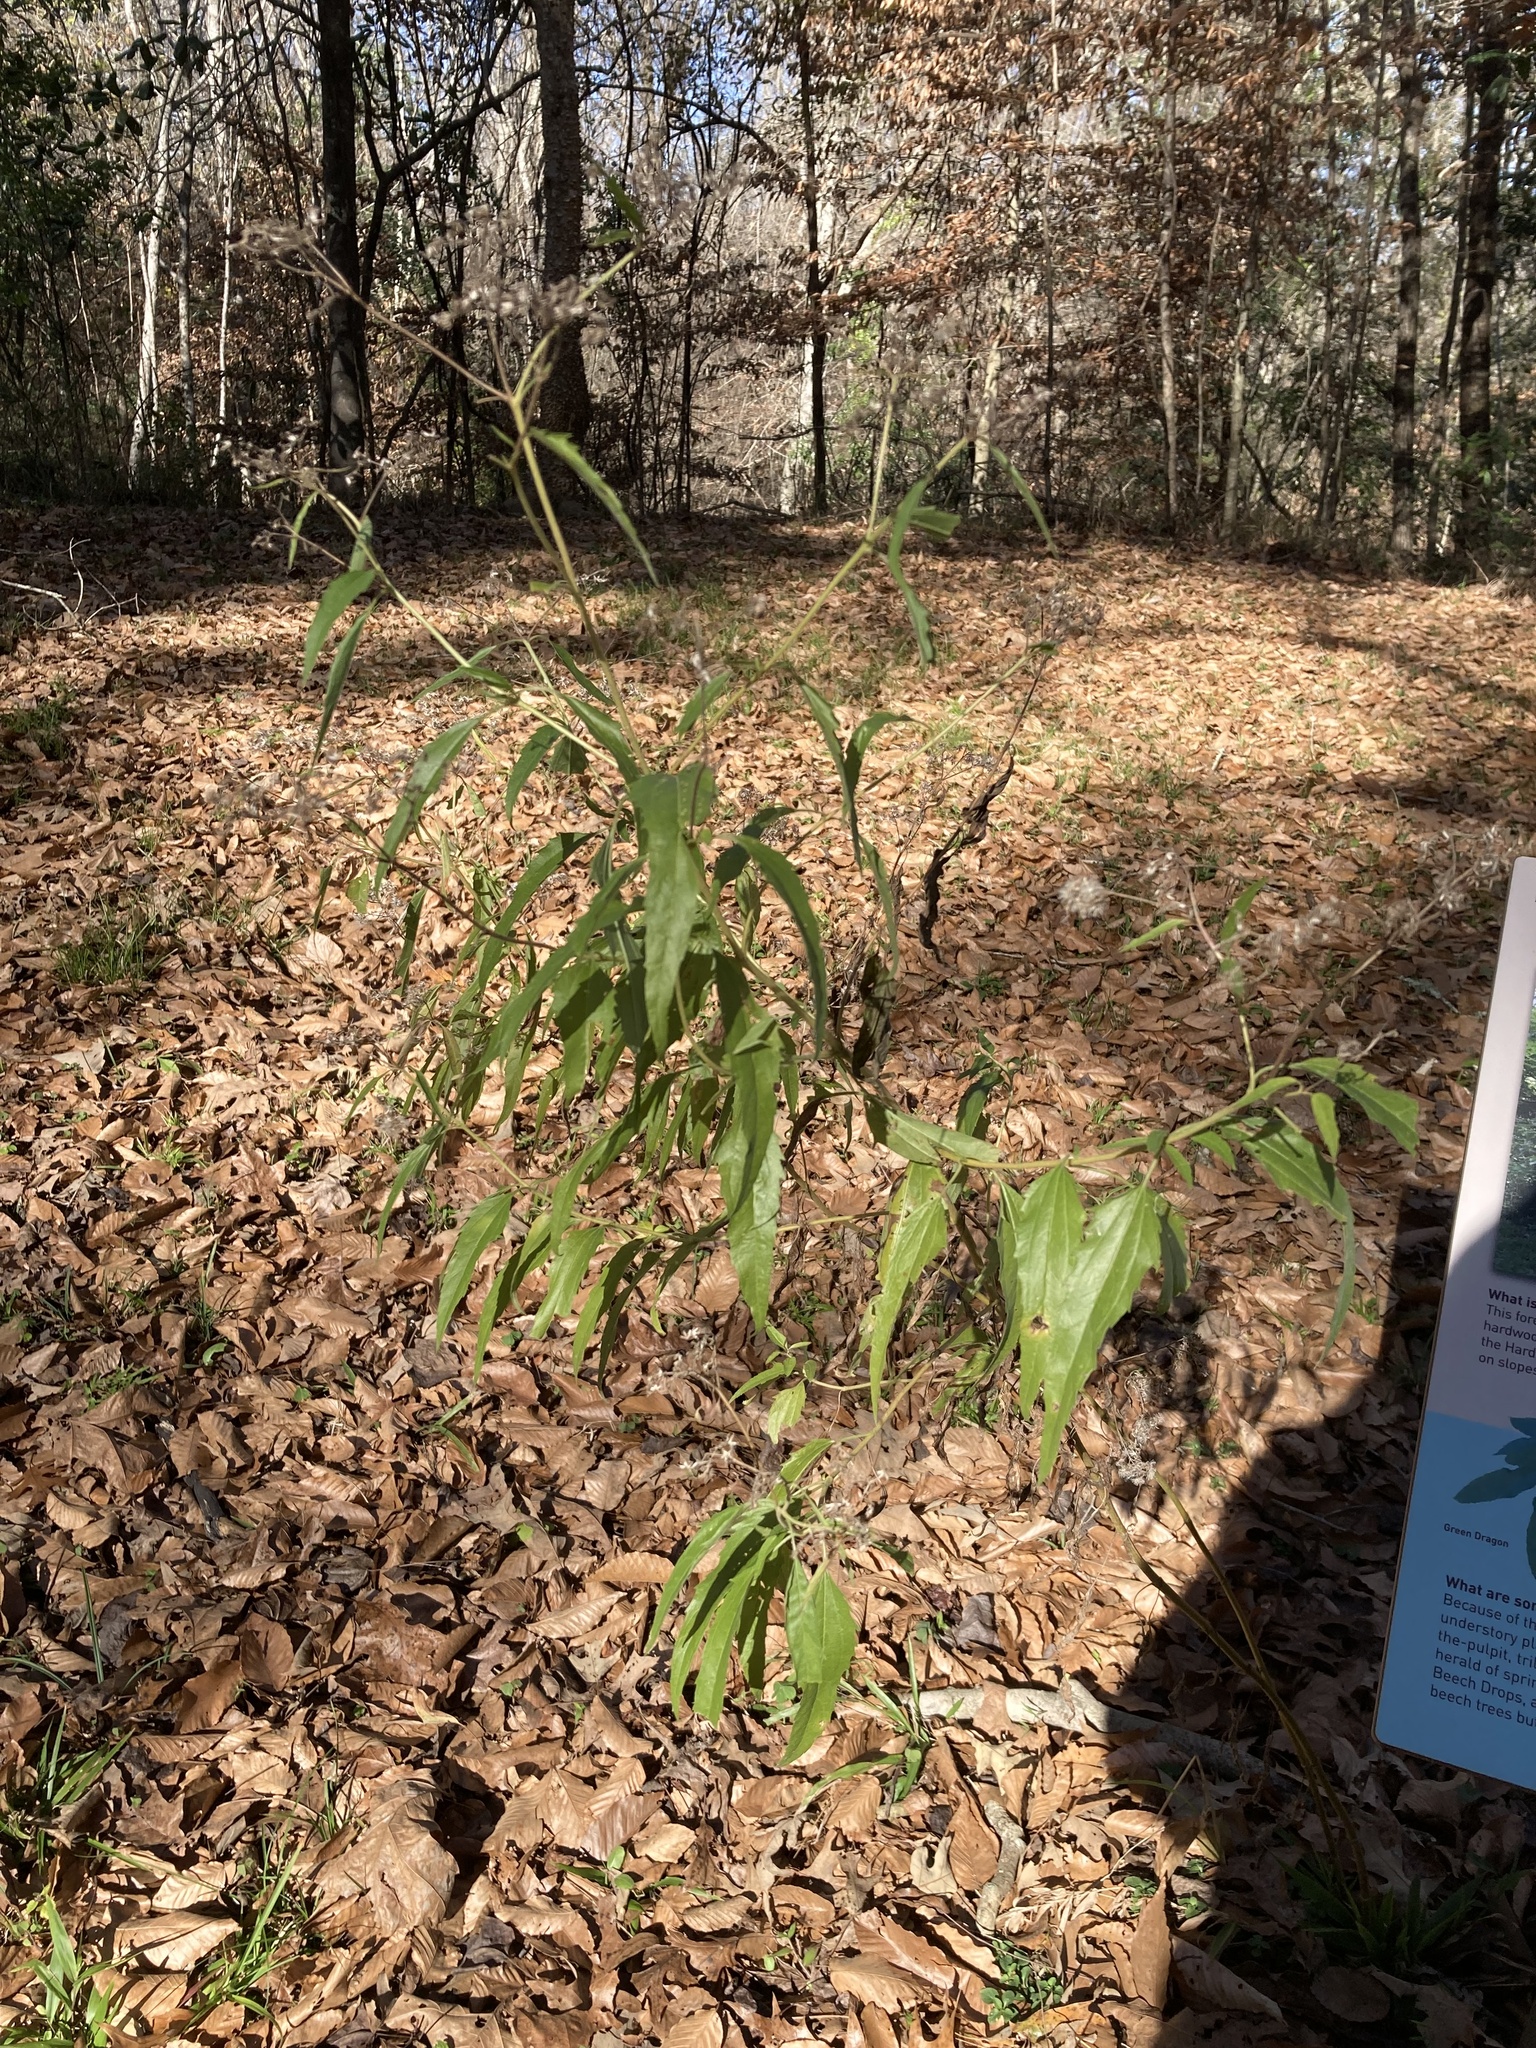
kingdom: Plantae
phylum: Tracheophyta
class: Magnoliopsida
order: Asterales
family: Asteraceae
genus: Eupatorium
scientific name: Eupatorium serotinum
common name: Late boneset
